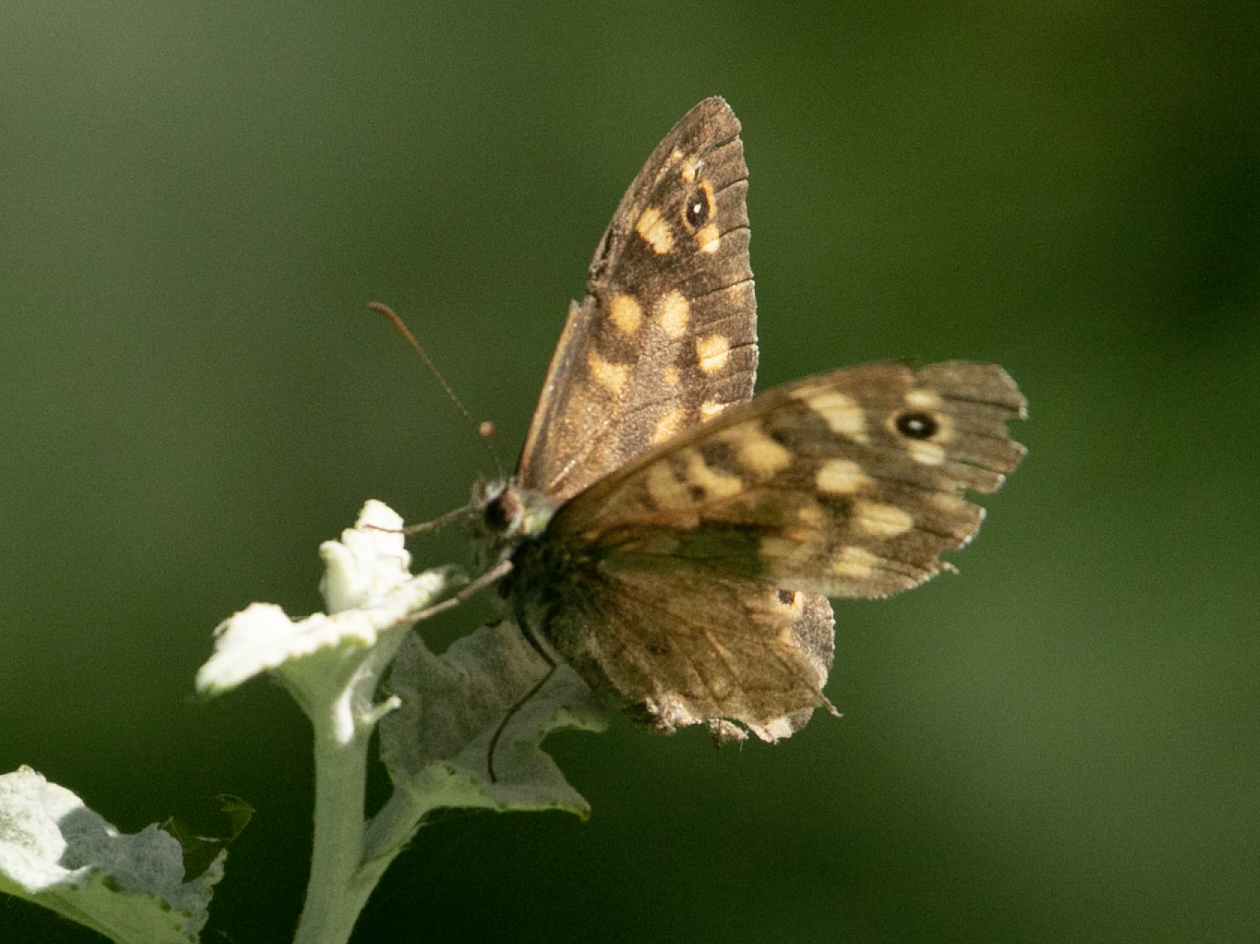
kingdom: Animalia
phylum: Arthropoda
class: Insecta
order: Lepidoptera
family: Nymphalidae
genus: Pararge
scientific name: Pararge aegeria
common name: Speckled wood
